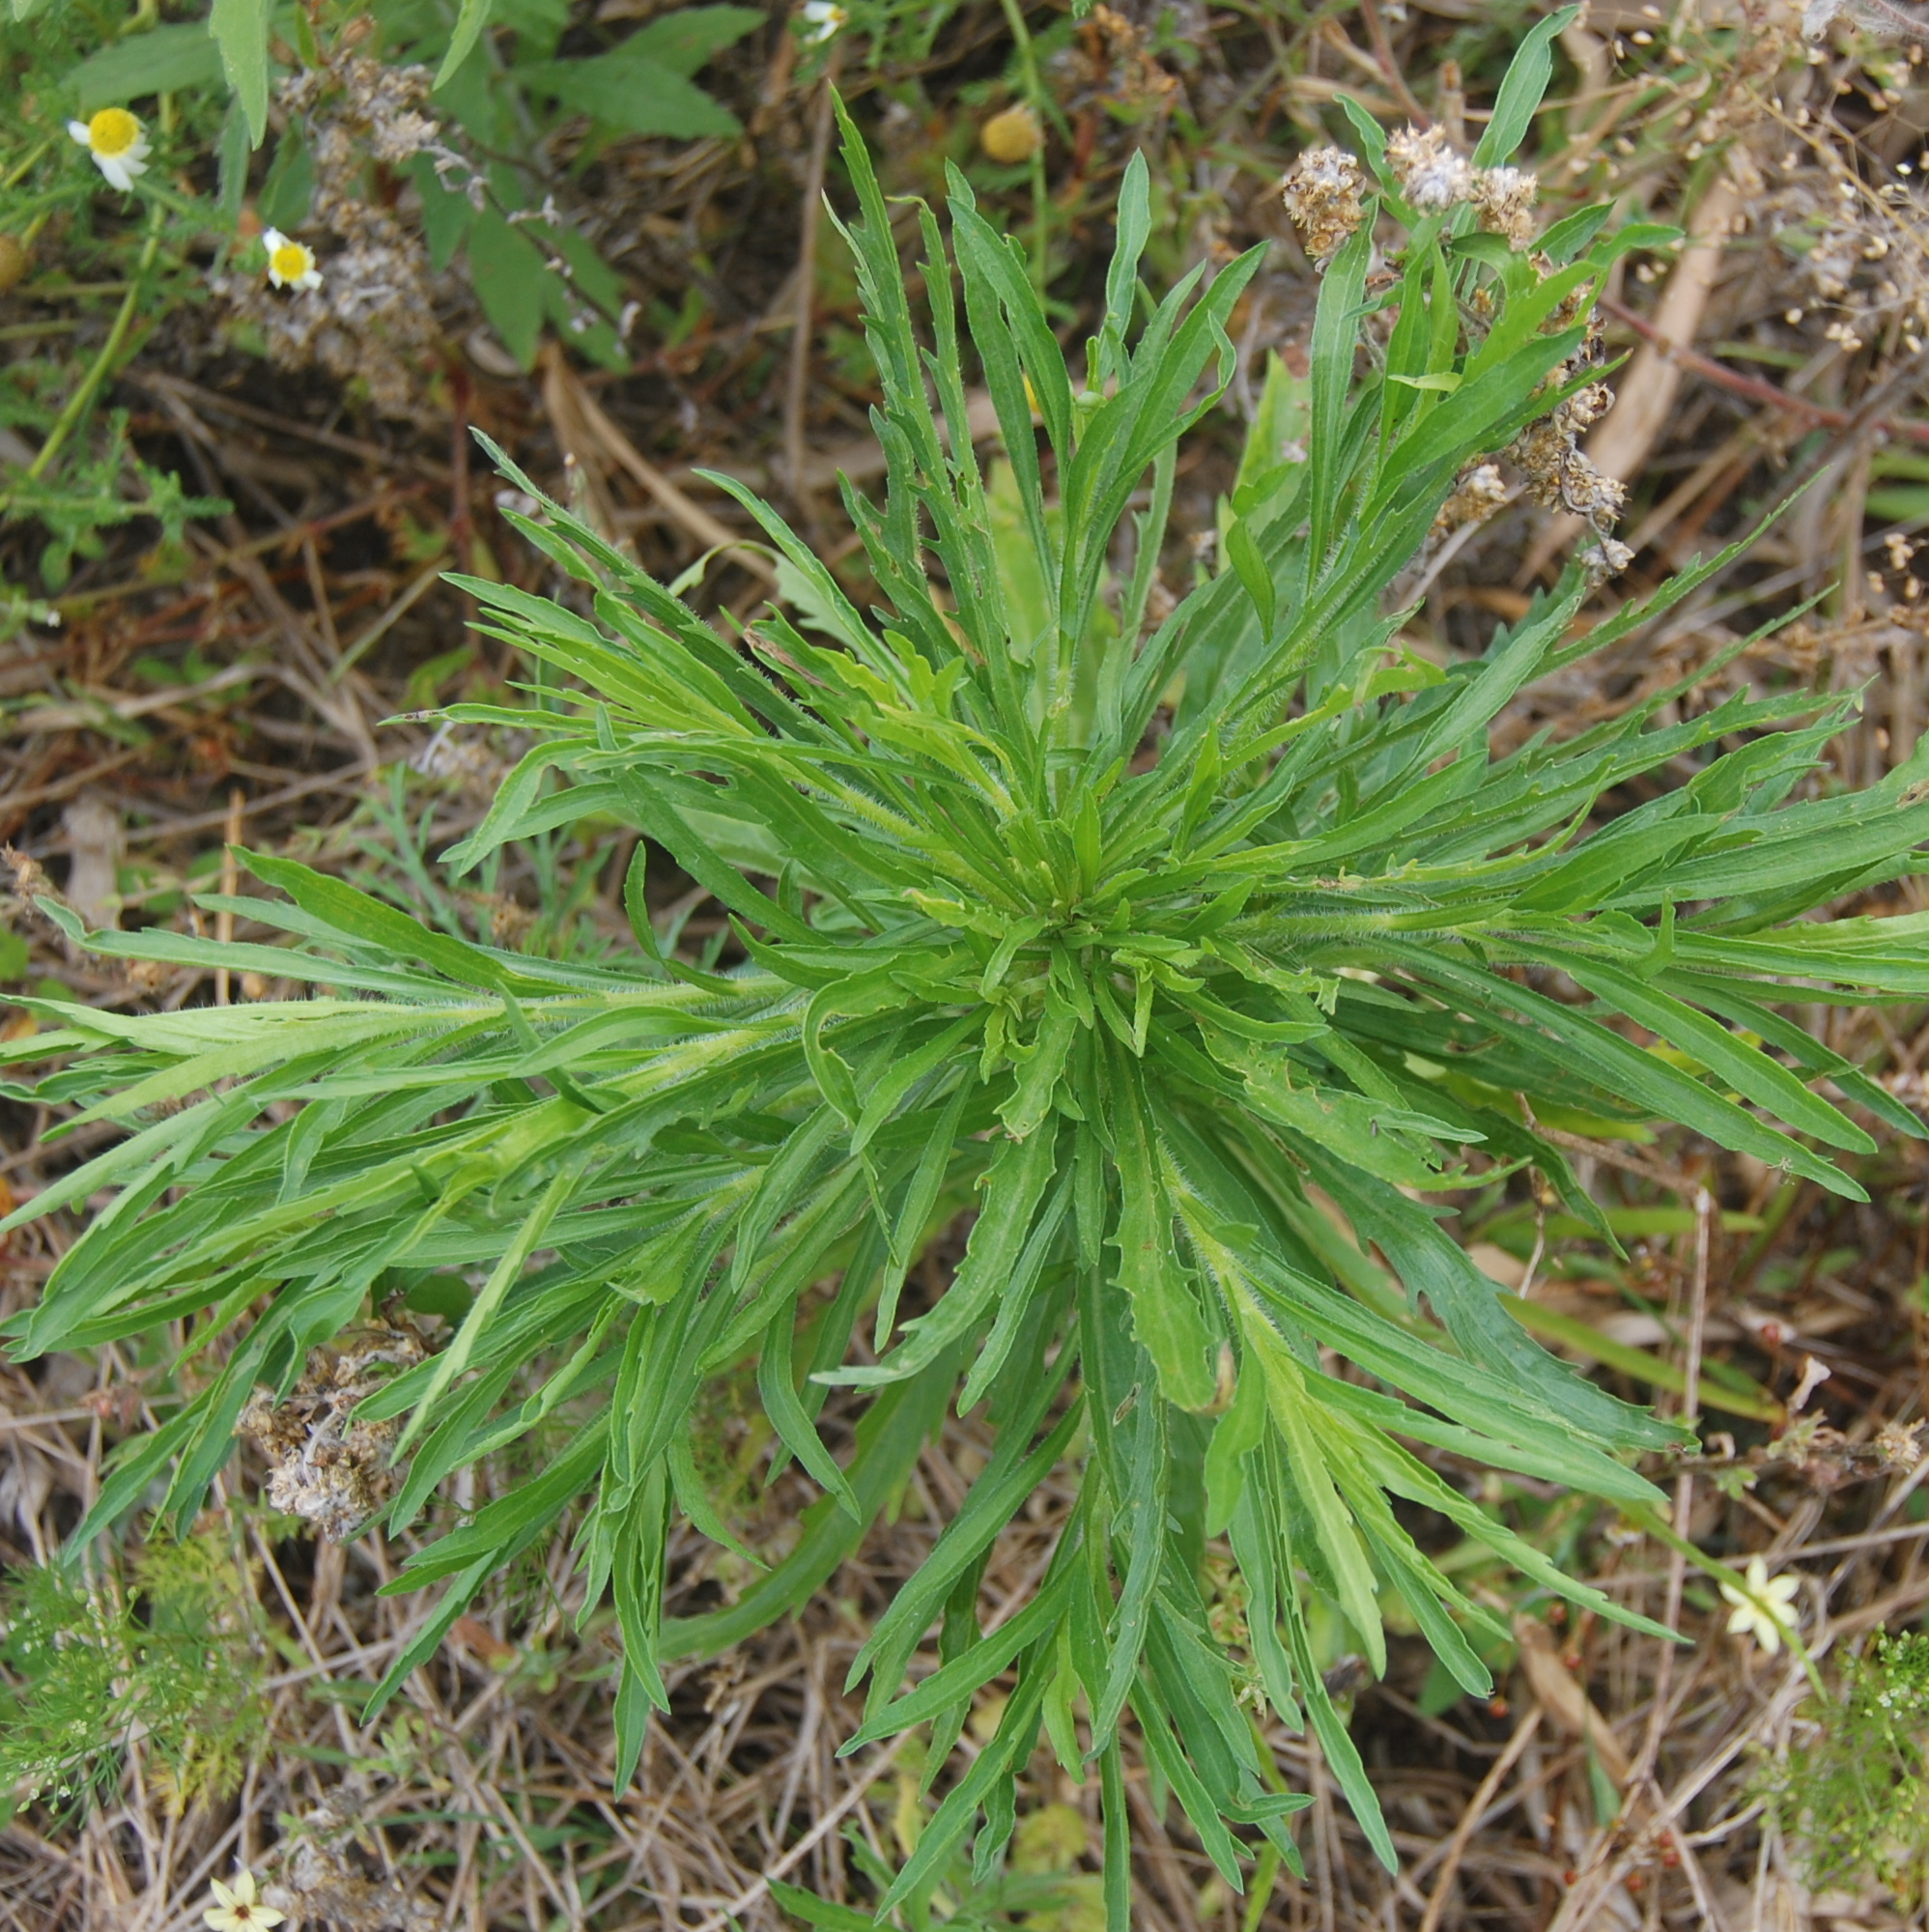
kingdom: Plantae
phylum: Tracheophyta
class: Magnoliopsida
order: Asterales
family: Asteraceae
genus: Erigeron
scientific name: Erigeron bonariensis
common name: Argentine fleabane
